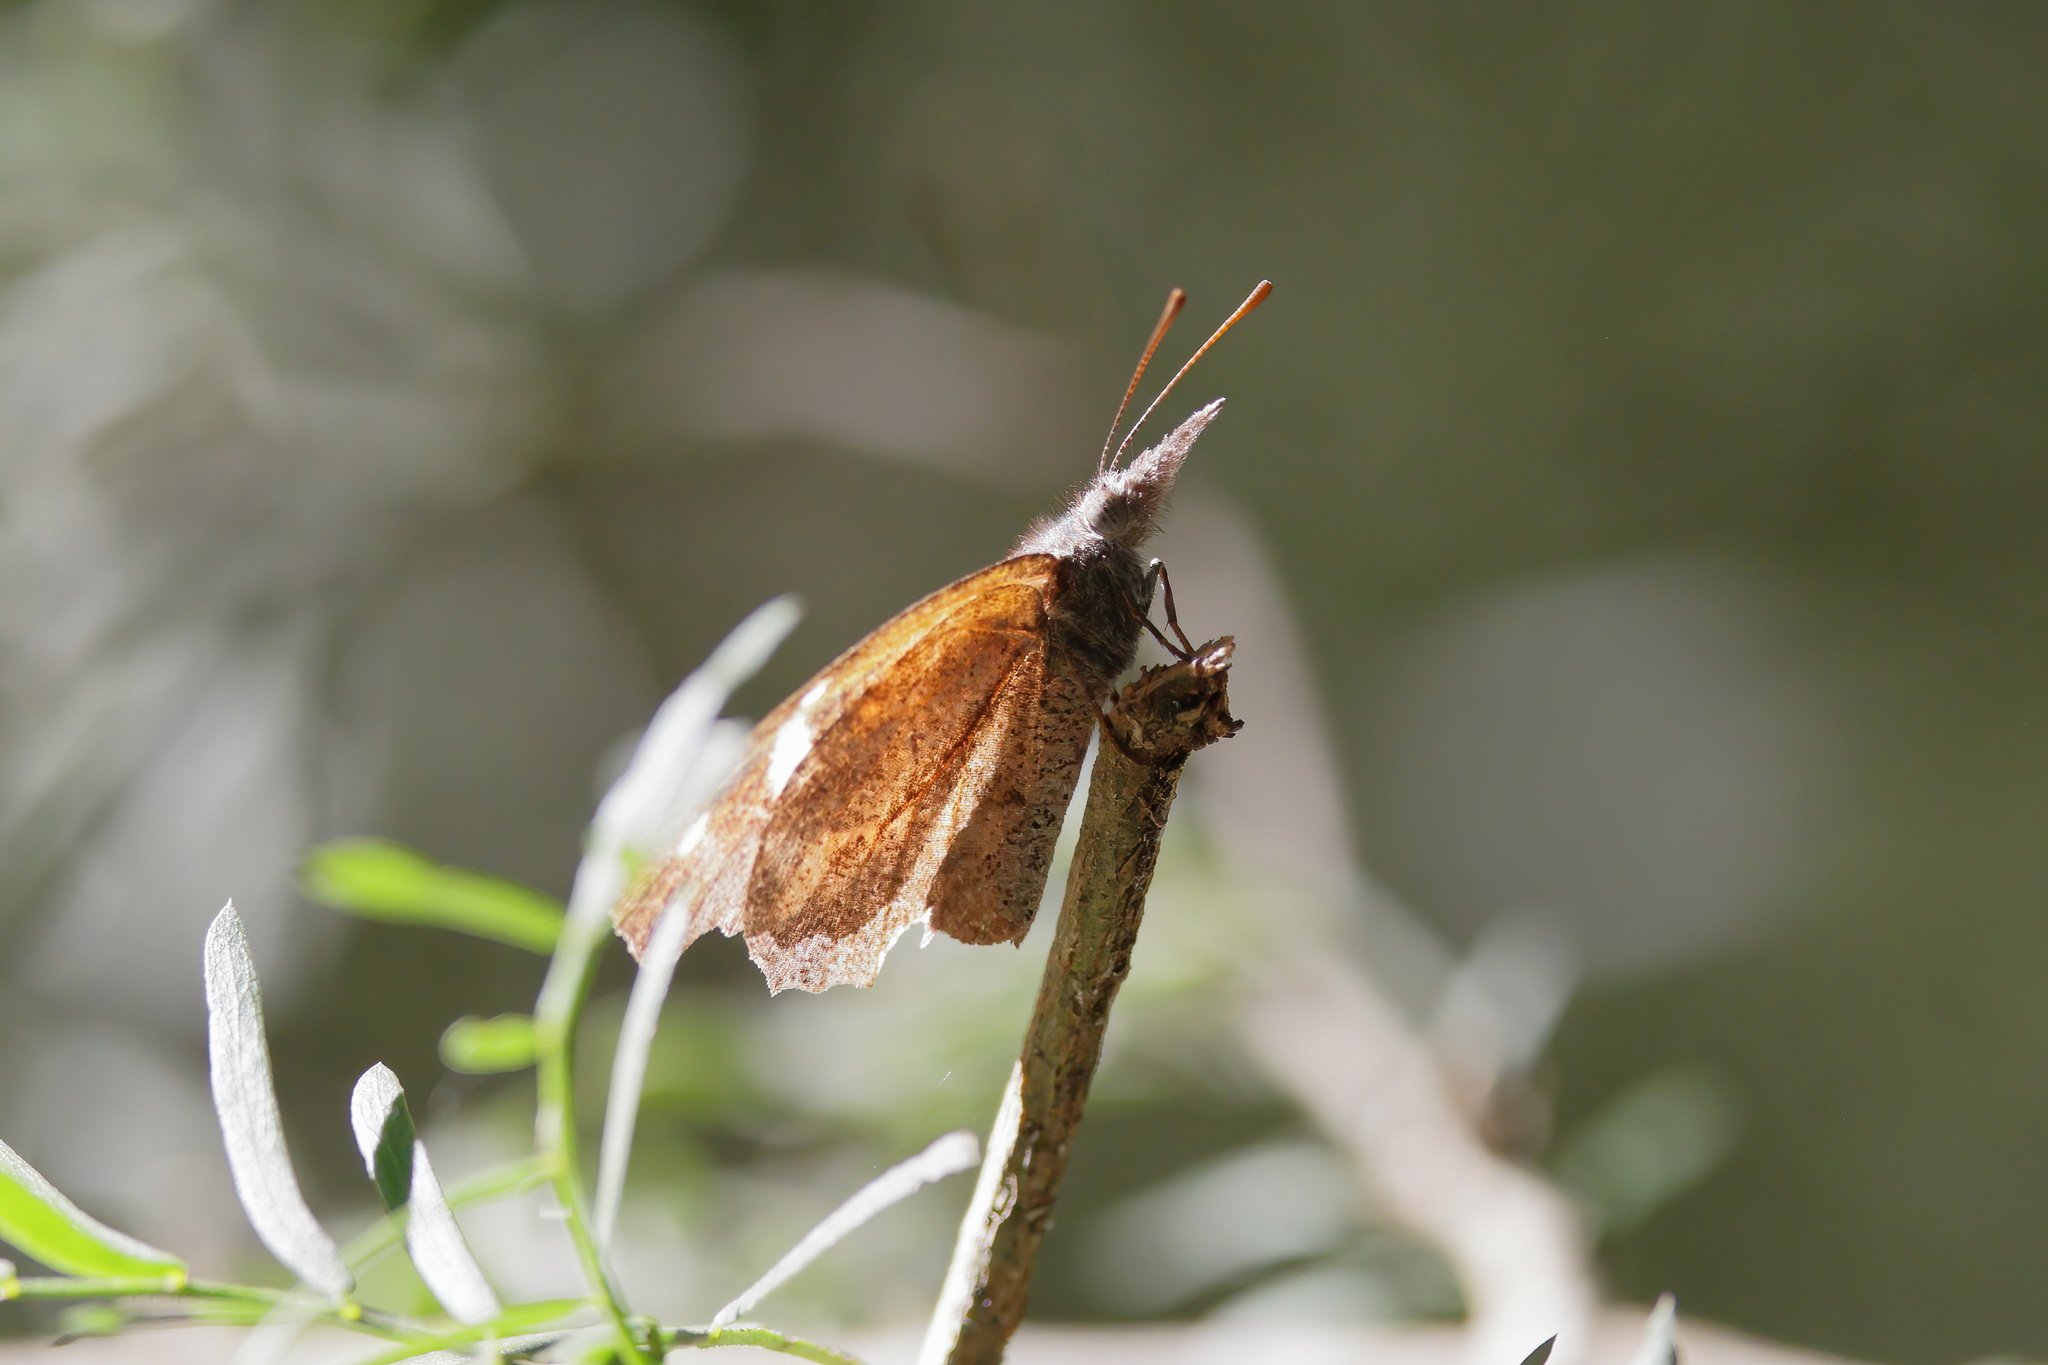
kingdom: Animalia
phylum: Arthropoda
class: Insecta
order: Lepidoptera
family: Nymphalidae
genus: Libytheana
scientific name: Libytheana carinenta
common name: American snout
